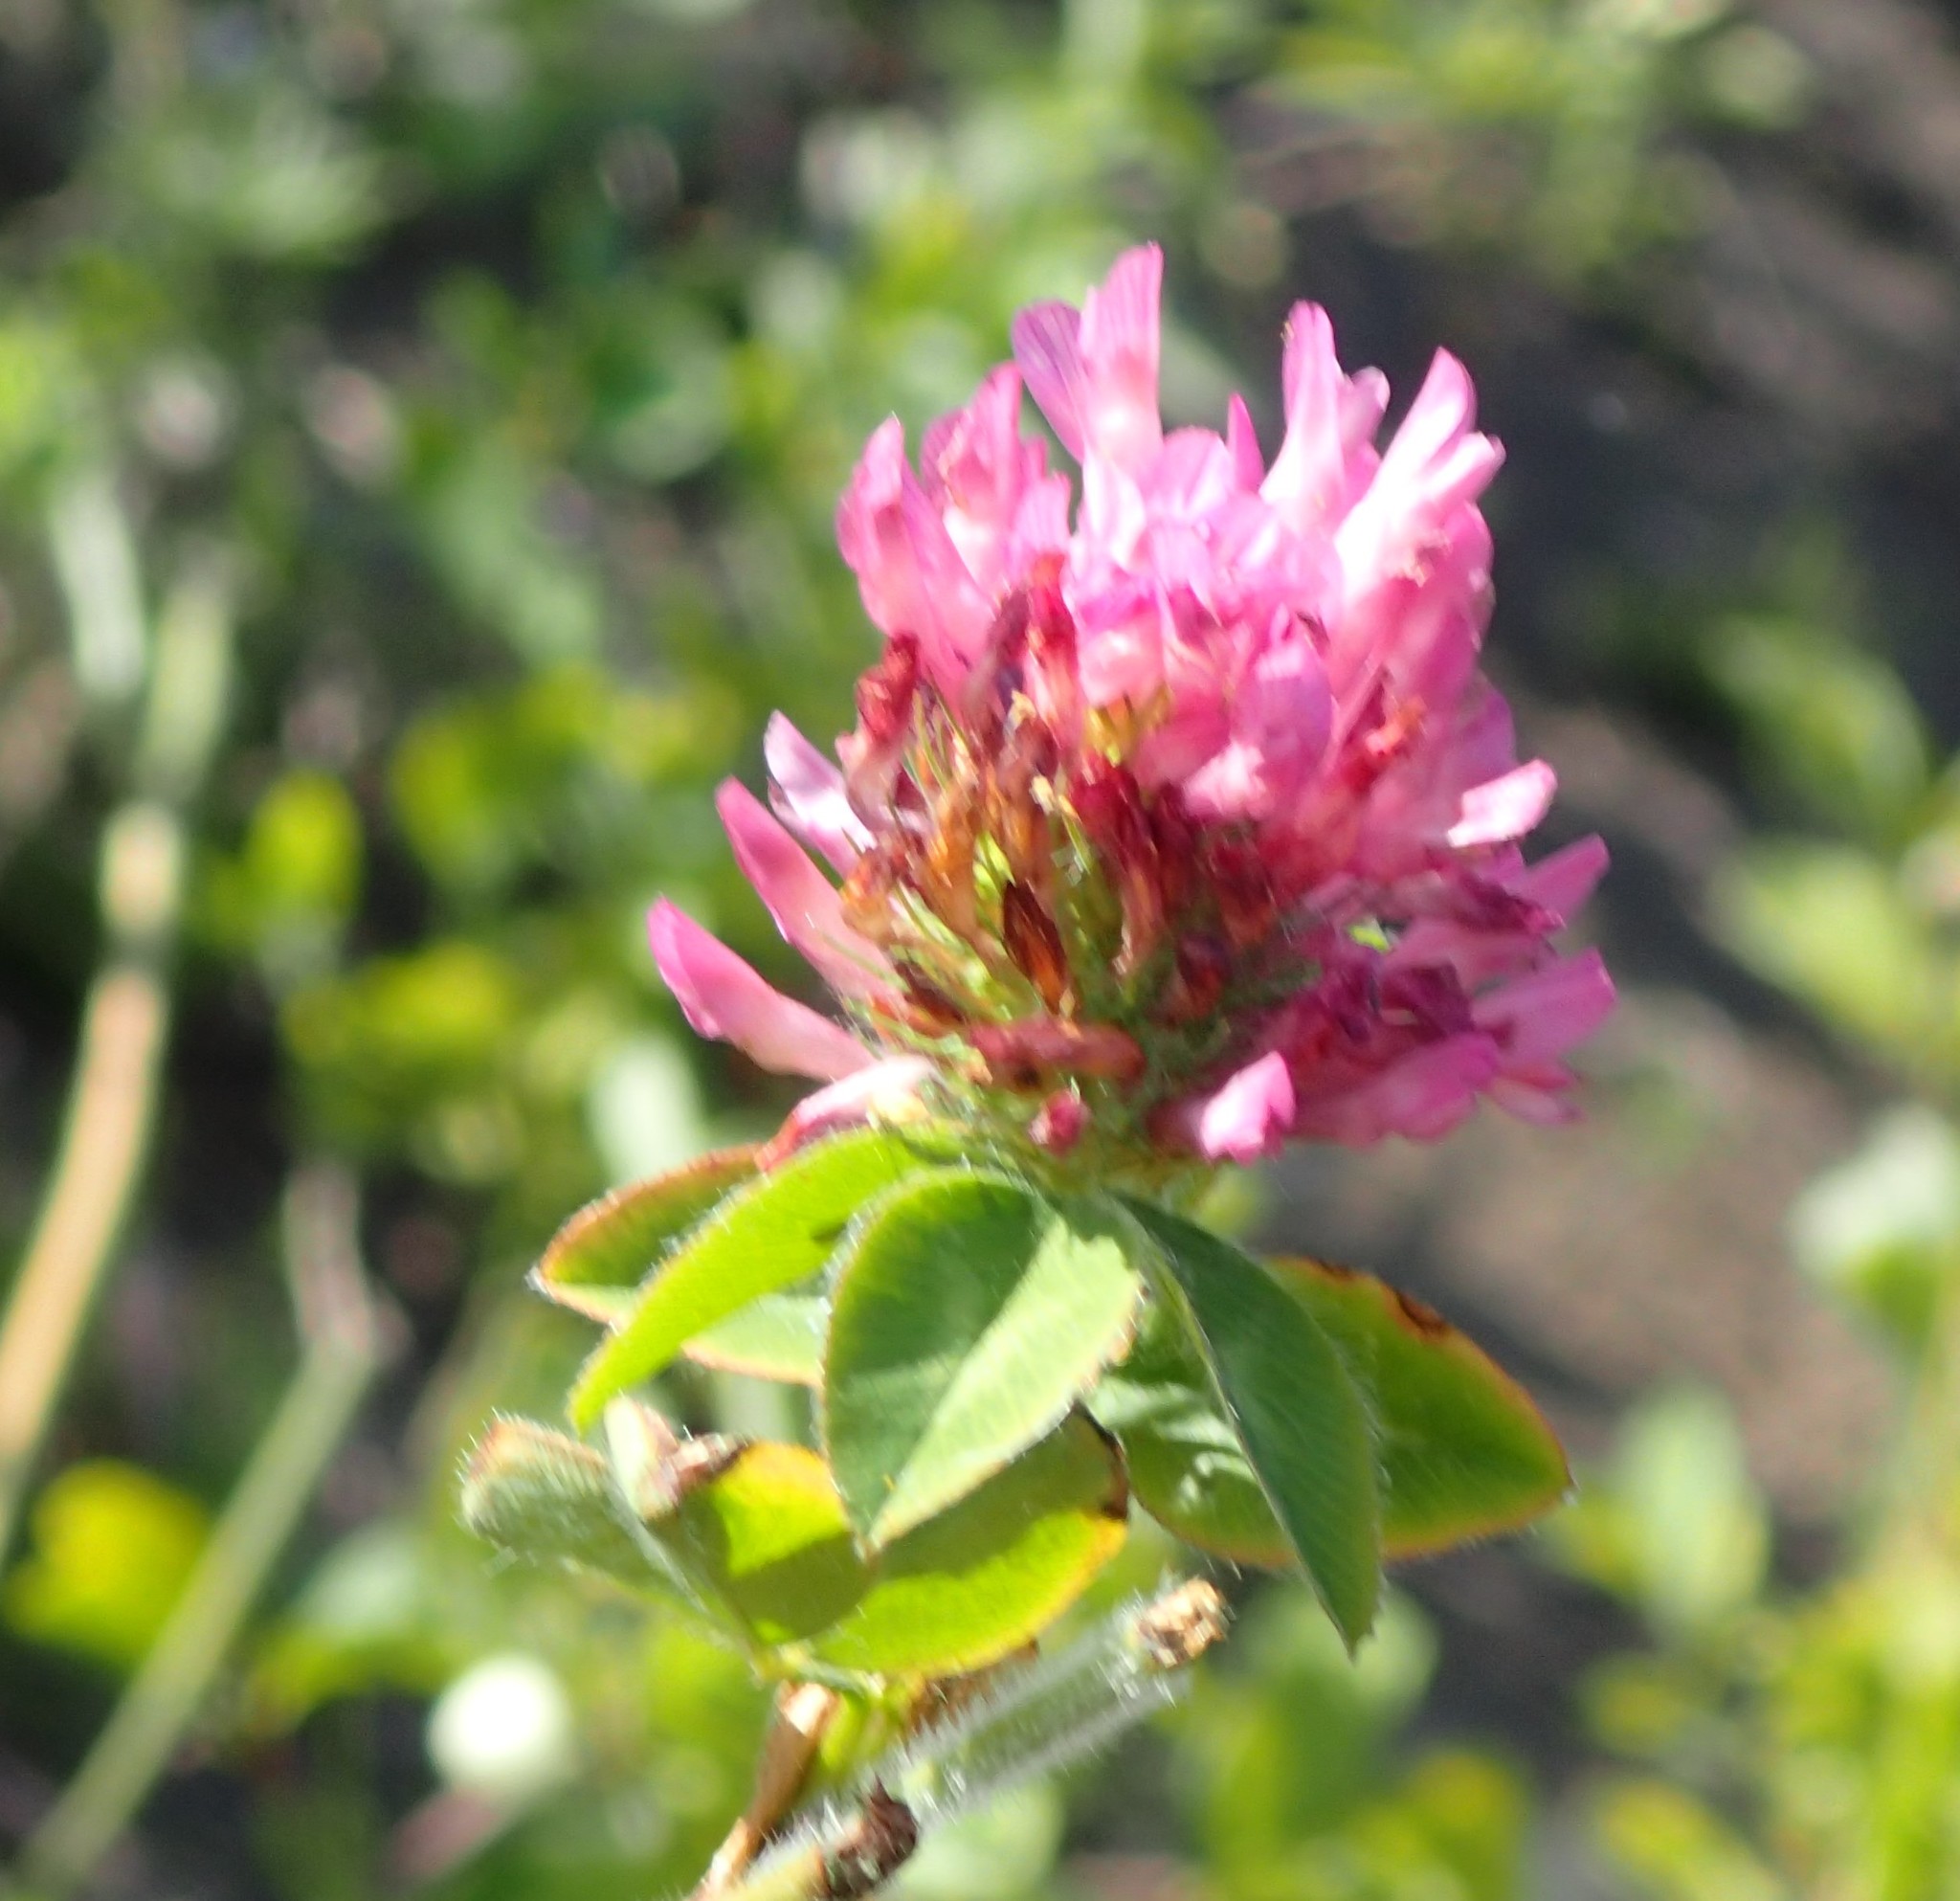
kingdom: Plantae
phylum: Tracheophyta
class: Magnoliopsida
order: Fabales
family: Fabaceae
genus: Trifolium
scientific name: Trifolium pratense
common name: Red clover
